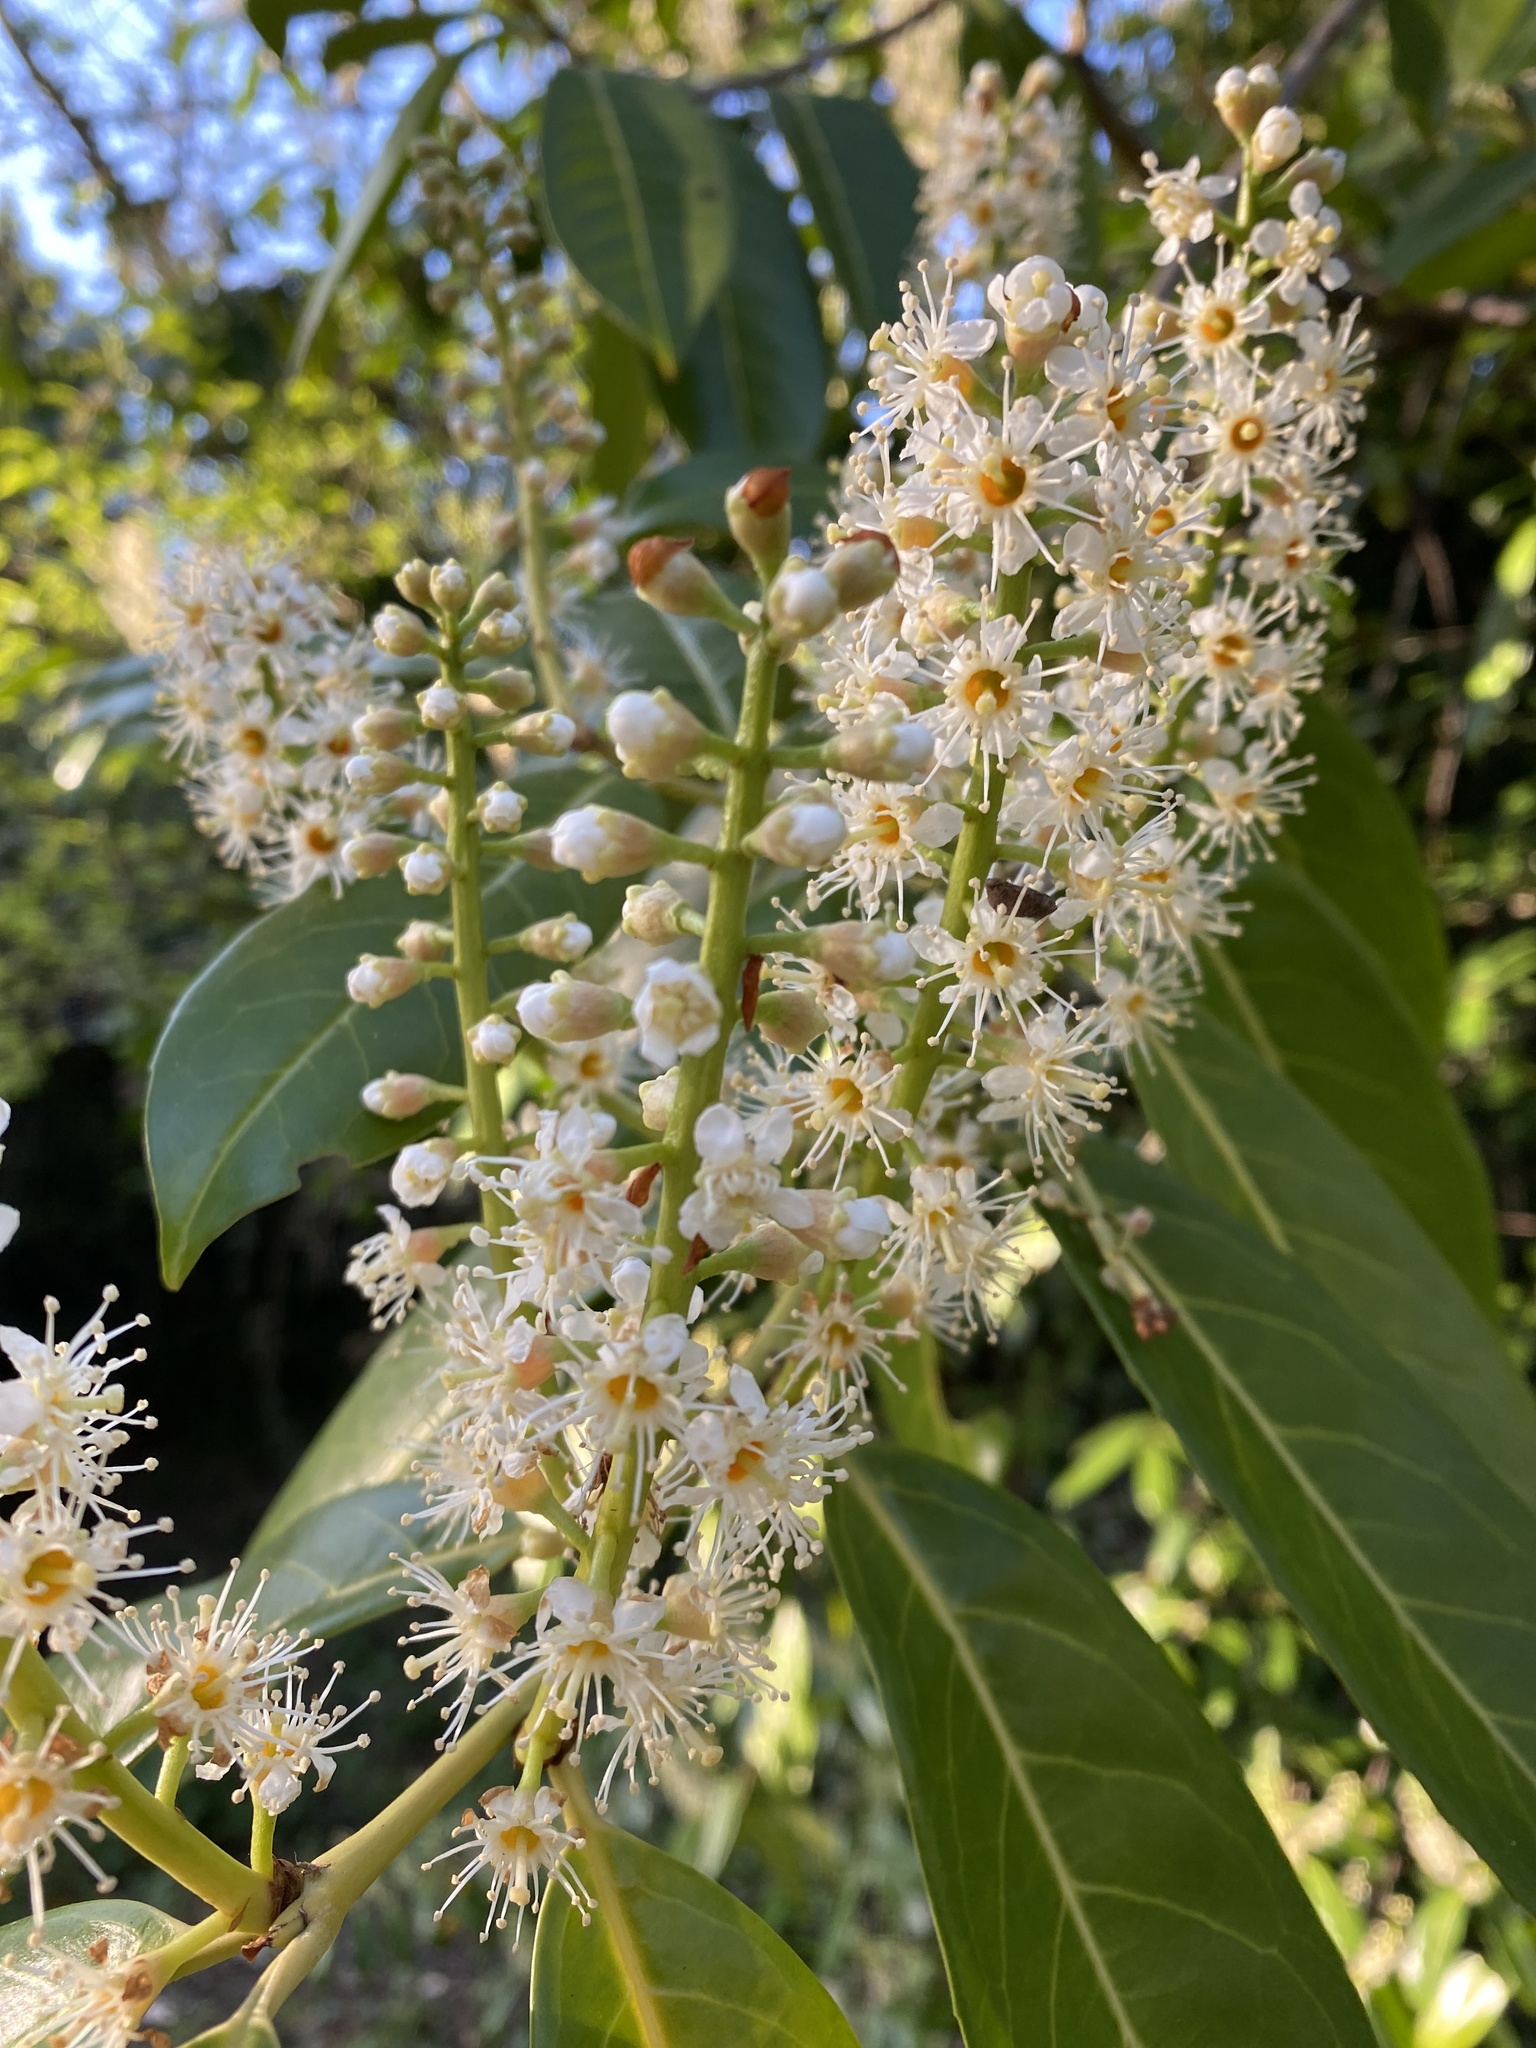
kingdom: Plantae
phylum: Tracheophyta
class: Magnoliopsida
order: Rosales
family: Rosaceae
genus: Prunus
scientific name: Prunus laurocerasus
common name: Cherry laurel
